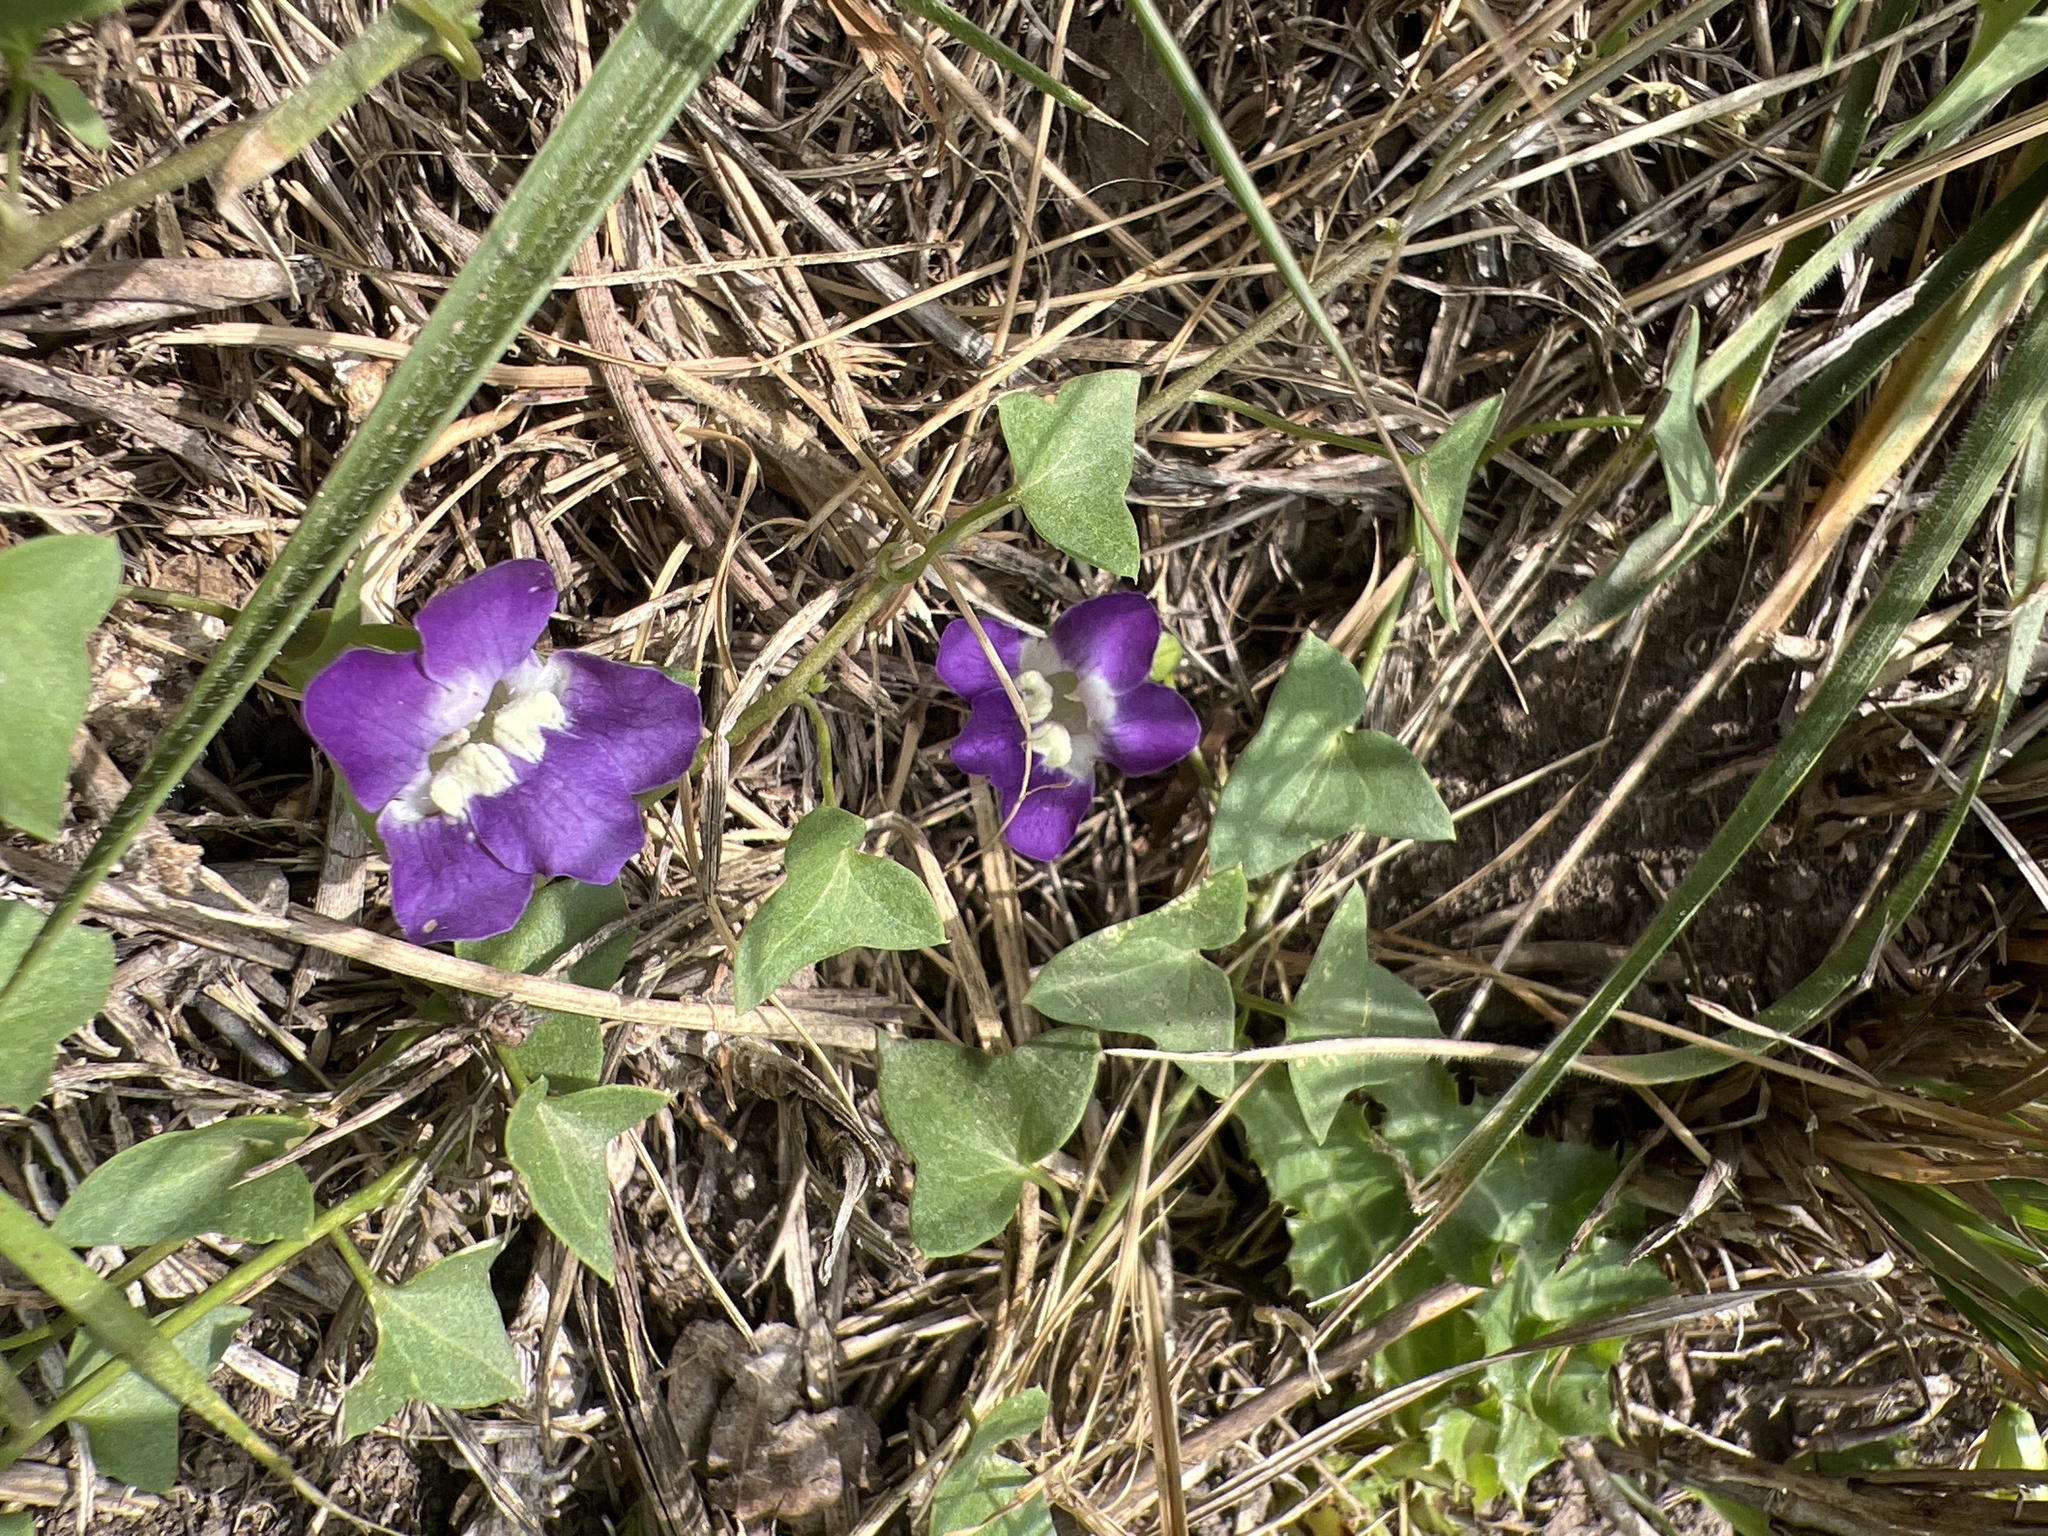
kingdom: Plantae
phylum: Tracheophyta
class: Magnoliopsida
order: Lamiales
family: Plantaginaceae
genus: Maurandella
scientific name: Maurandella antirrhiniflora
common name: Violet twining-snapdragon
